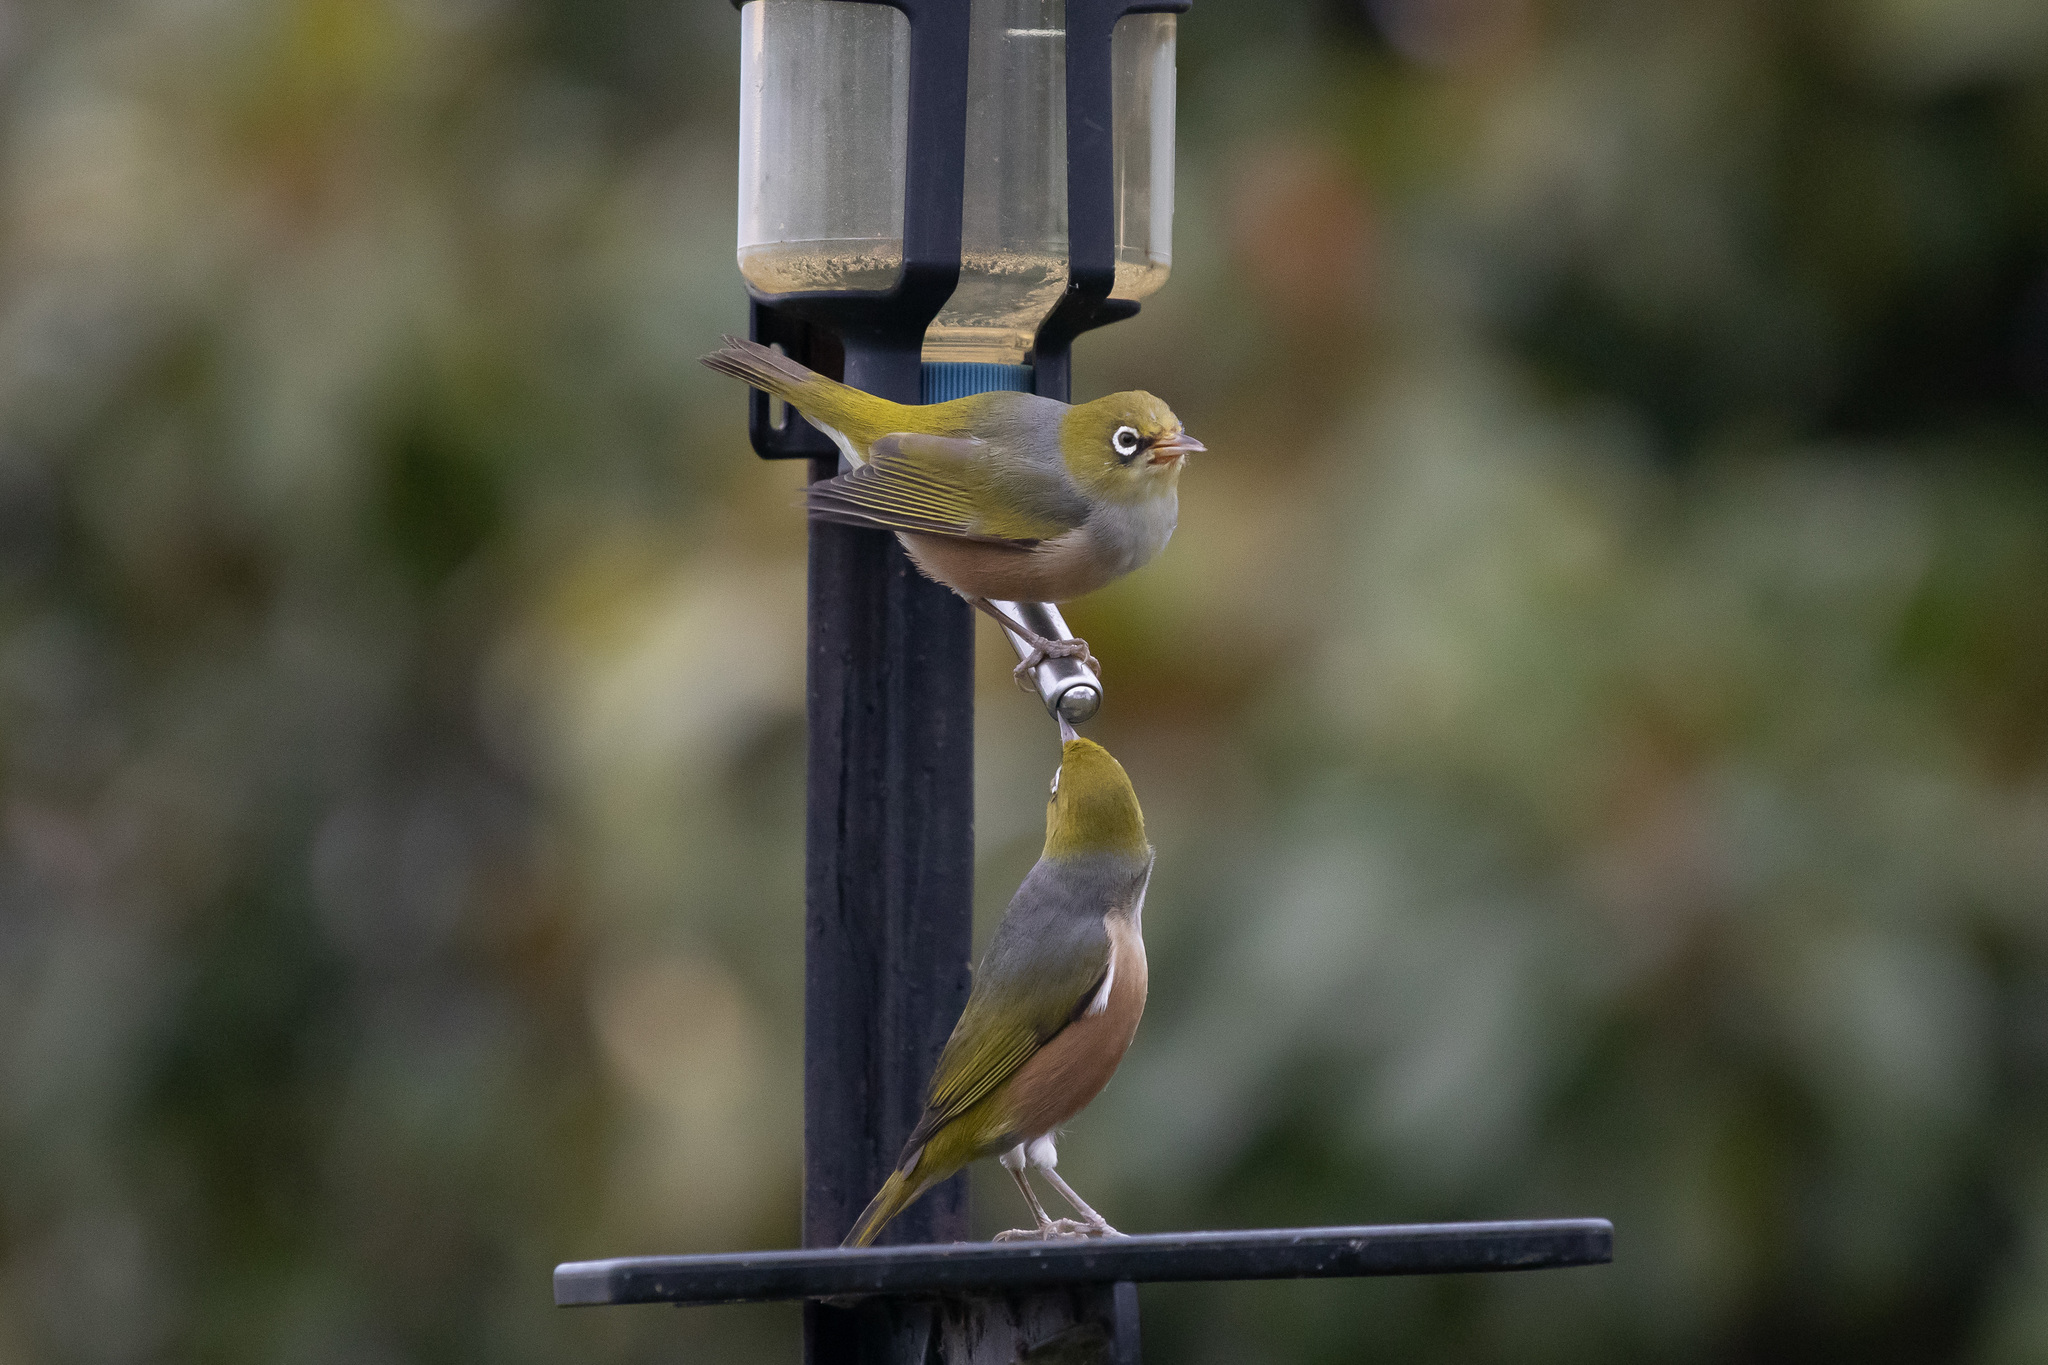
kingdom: Animalia
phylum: Chordata
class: Aves
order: Passeriformes
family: Zosteropidae
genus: Zosterops
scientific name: Zosterops lateralis
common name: Silvereye
